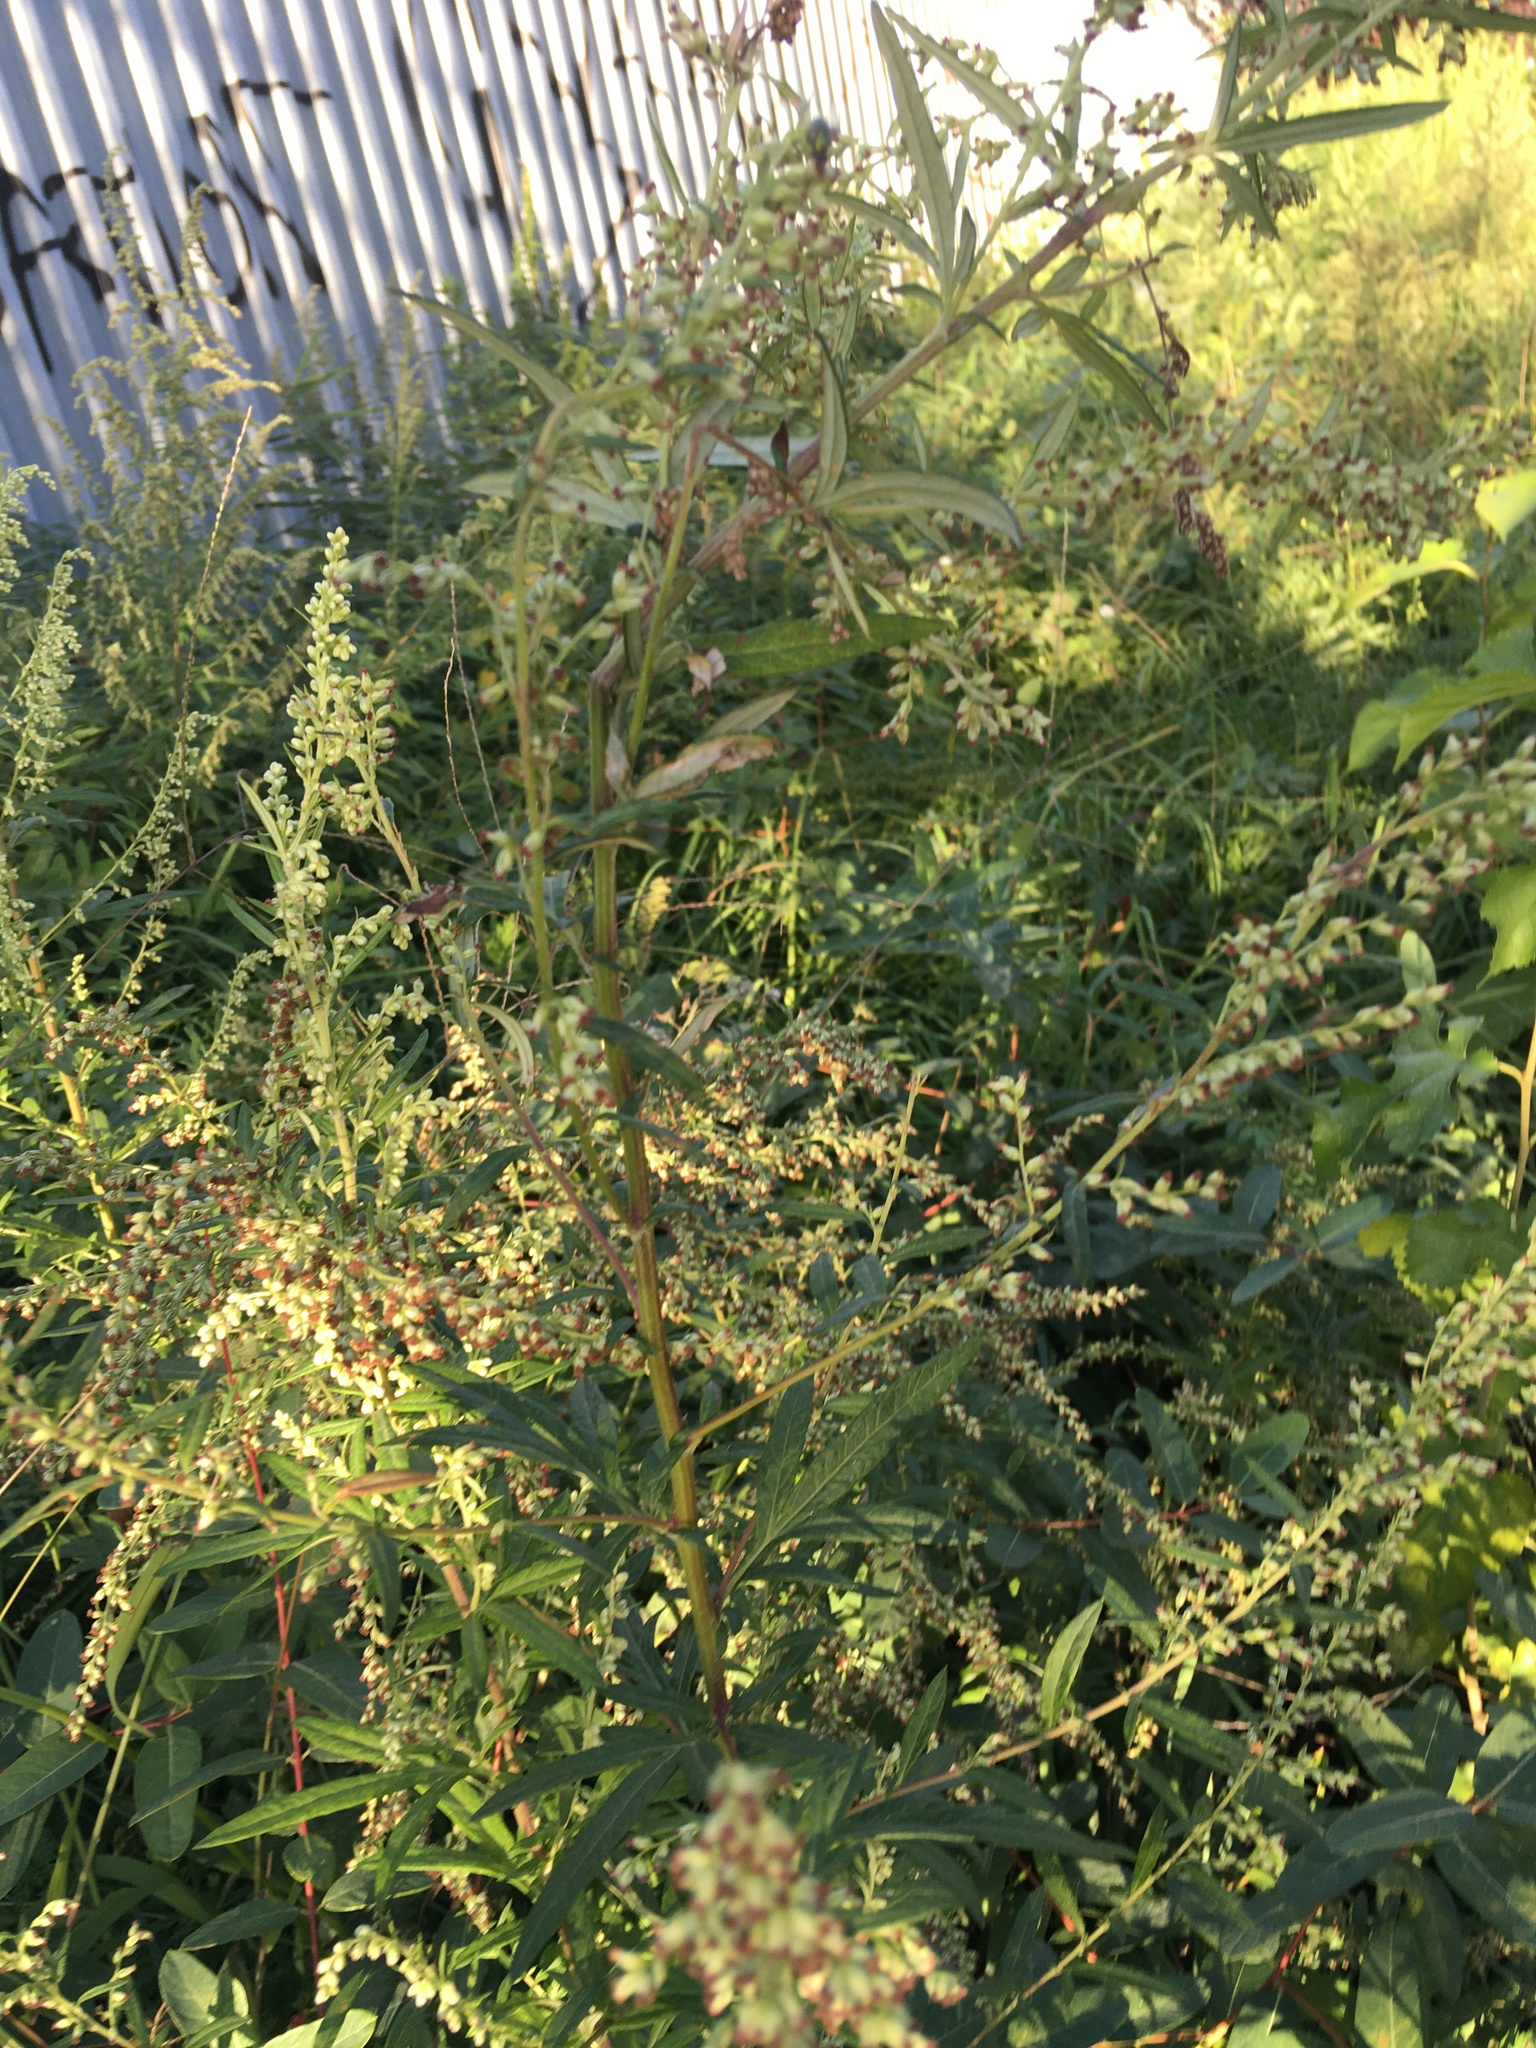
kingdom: Plantae
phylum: Tracheophyta
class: Magnoliopsida
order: Asterales
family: Asteraceae
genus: Artemisia
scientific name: Artemisia vulgaris
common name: Mugwort
